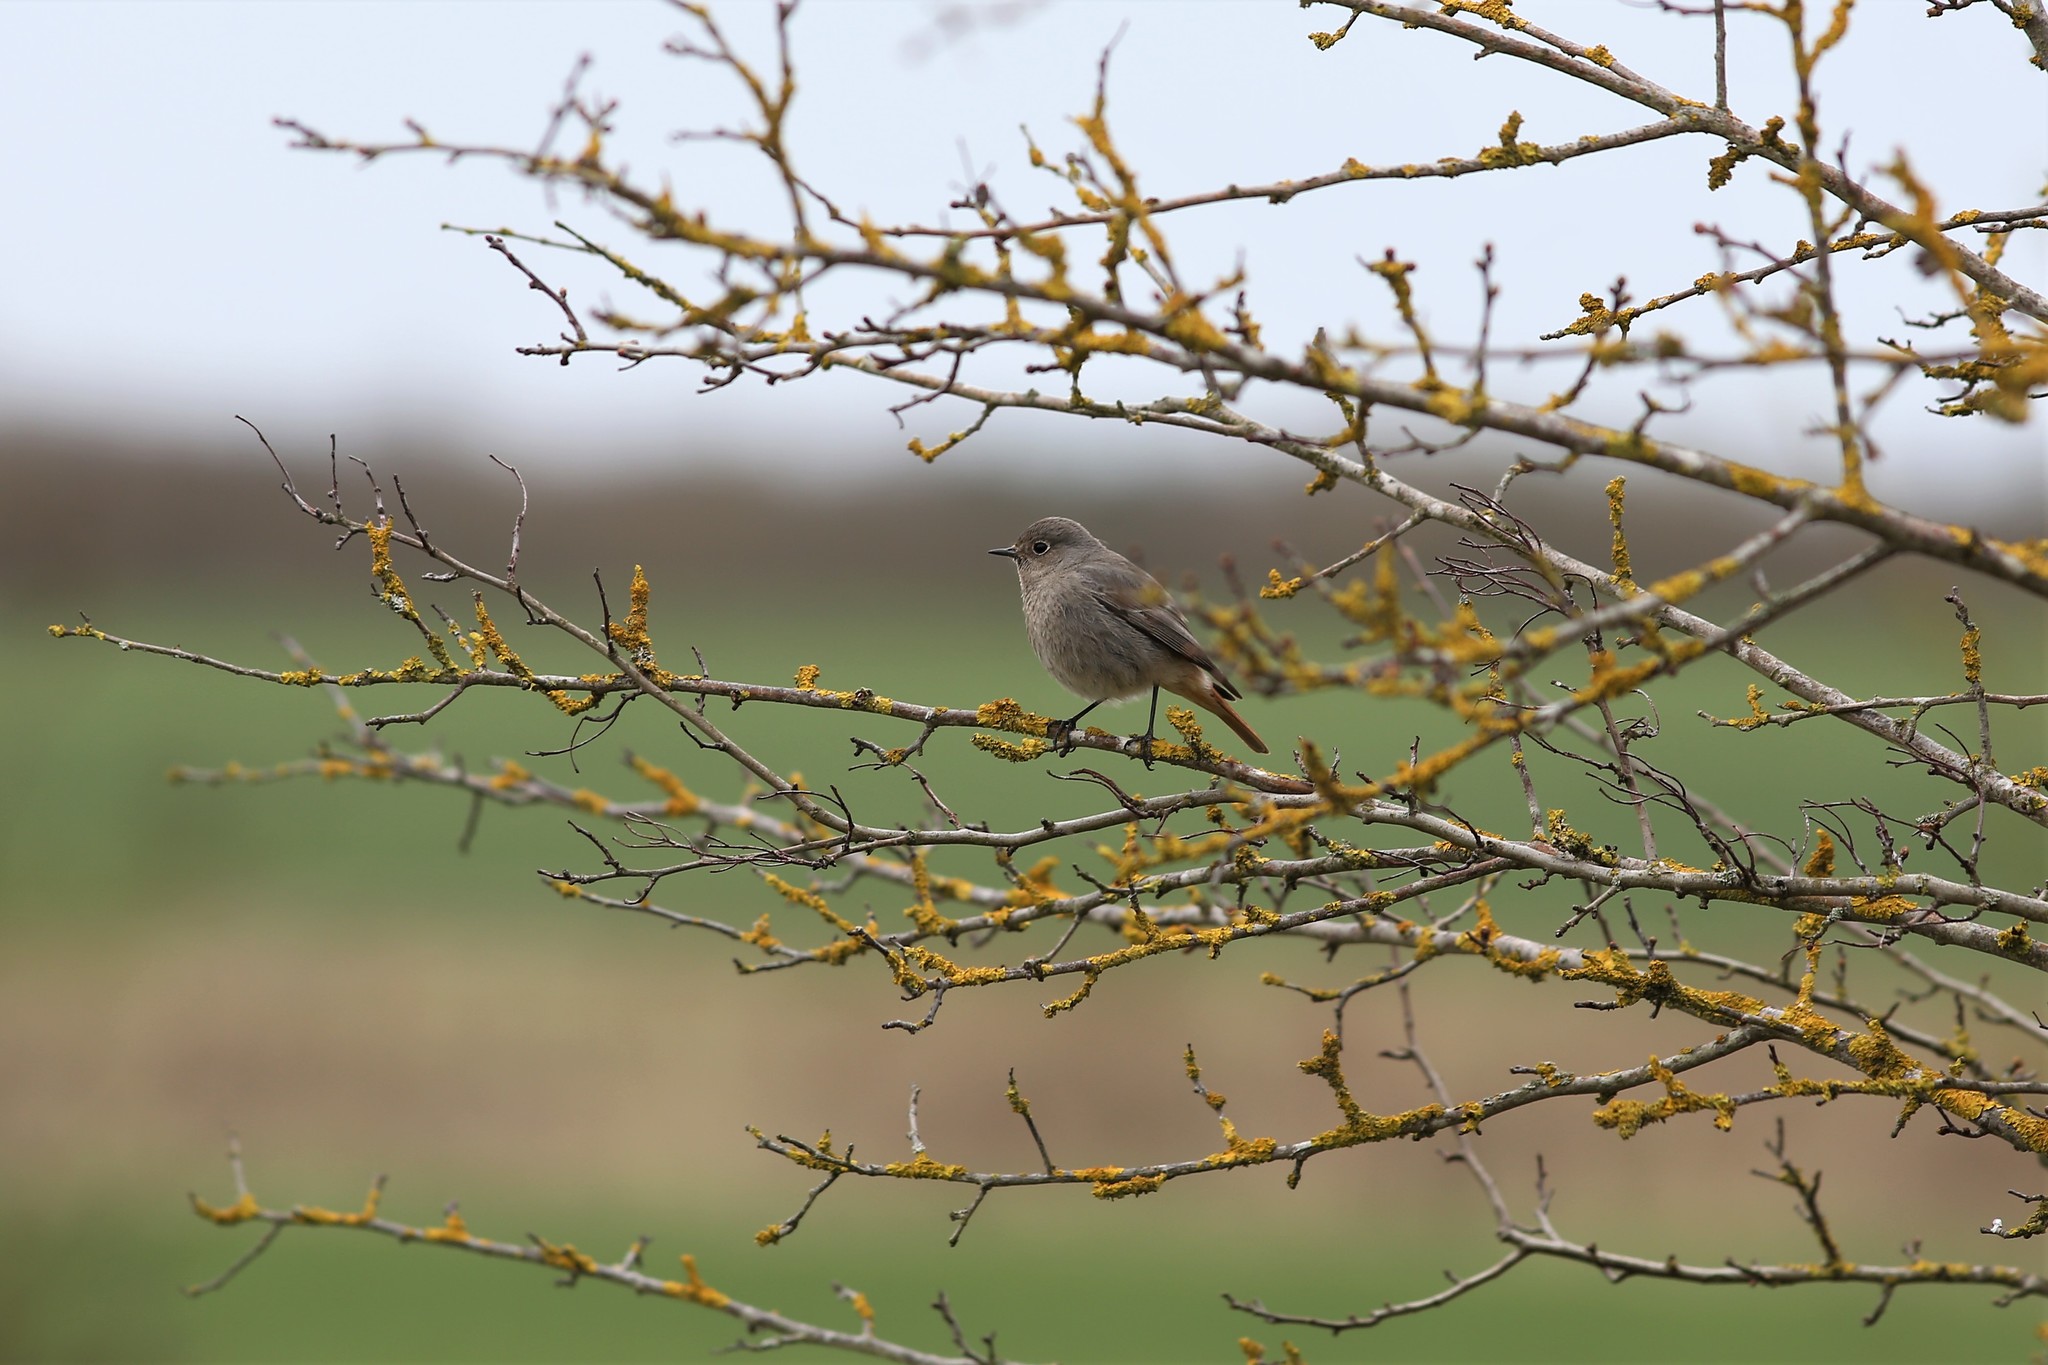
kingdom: Animalia
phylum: Chordata
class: Aves
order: Passeriformes
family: Muscicapidae
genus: Phoenicurus
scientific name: Phoenicurus ochruros
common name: Black redstart
